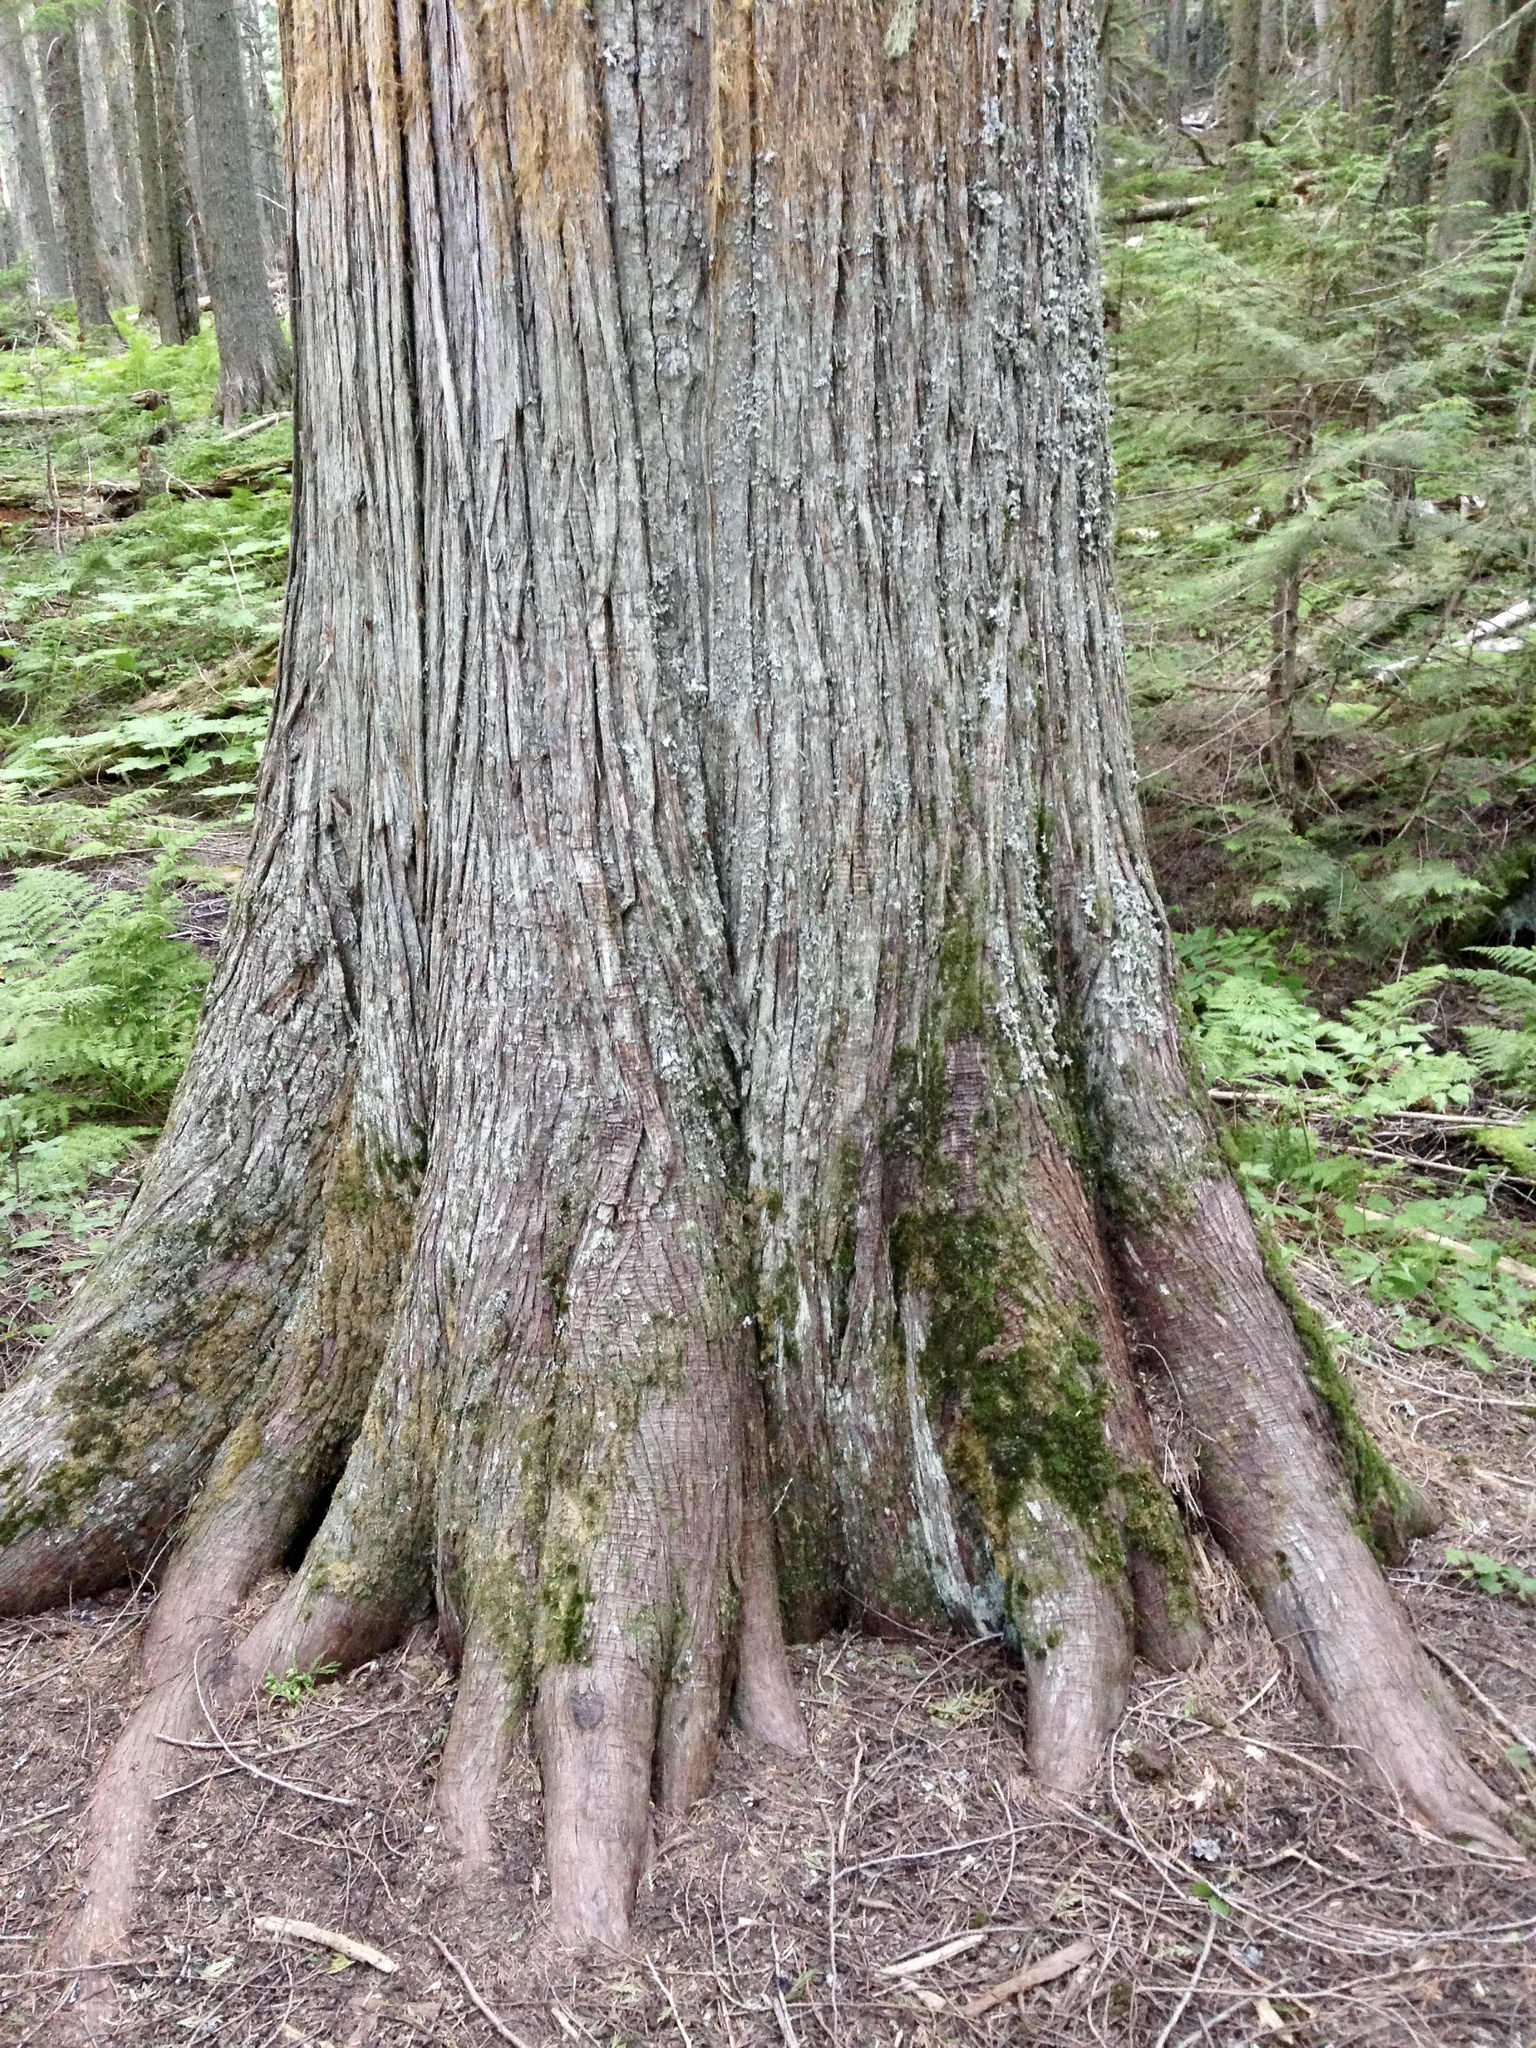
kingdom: Plantae
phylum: Tracheophyta
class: Pinopsida
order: Pinales
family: Cupressaceae
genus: Thuja
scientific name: Thuja plicata
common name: Western red-cedar
